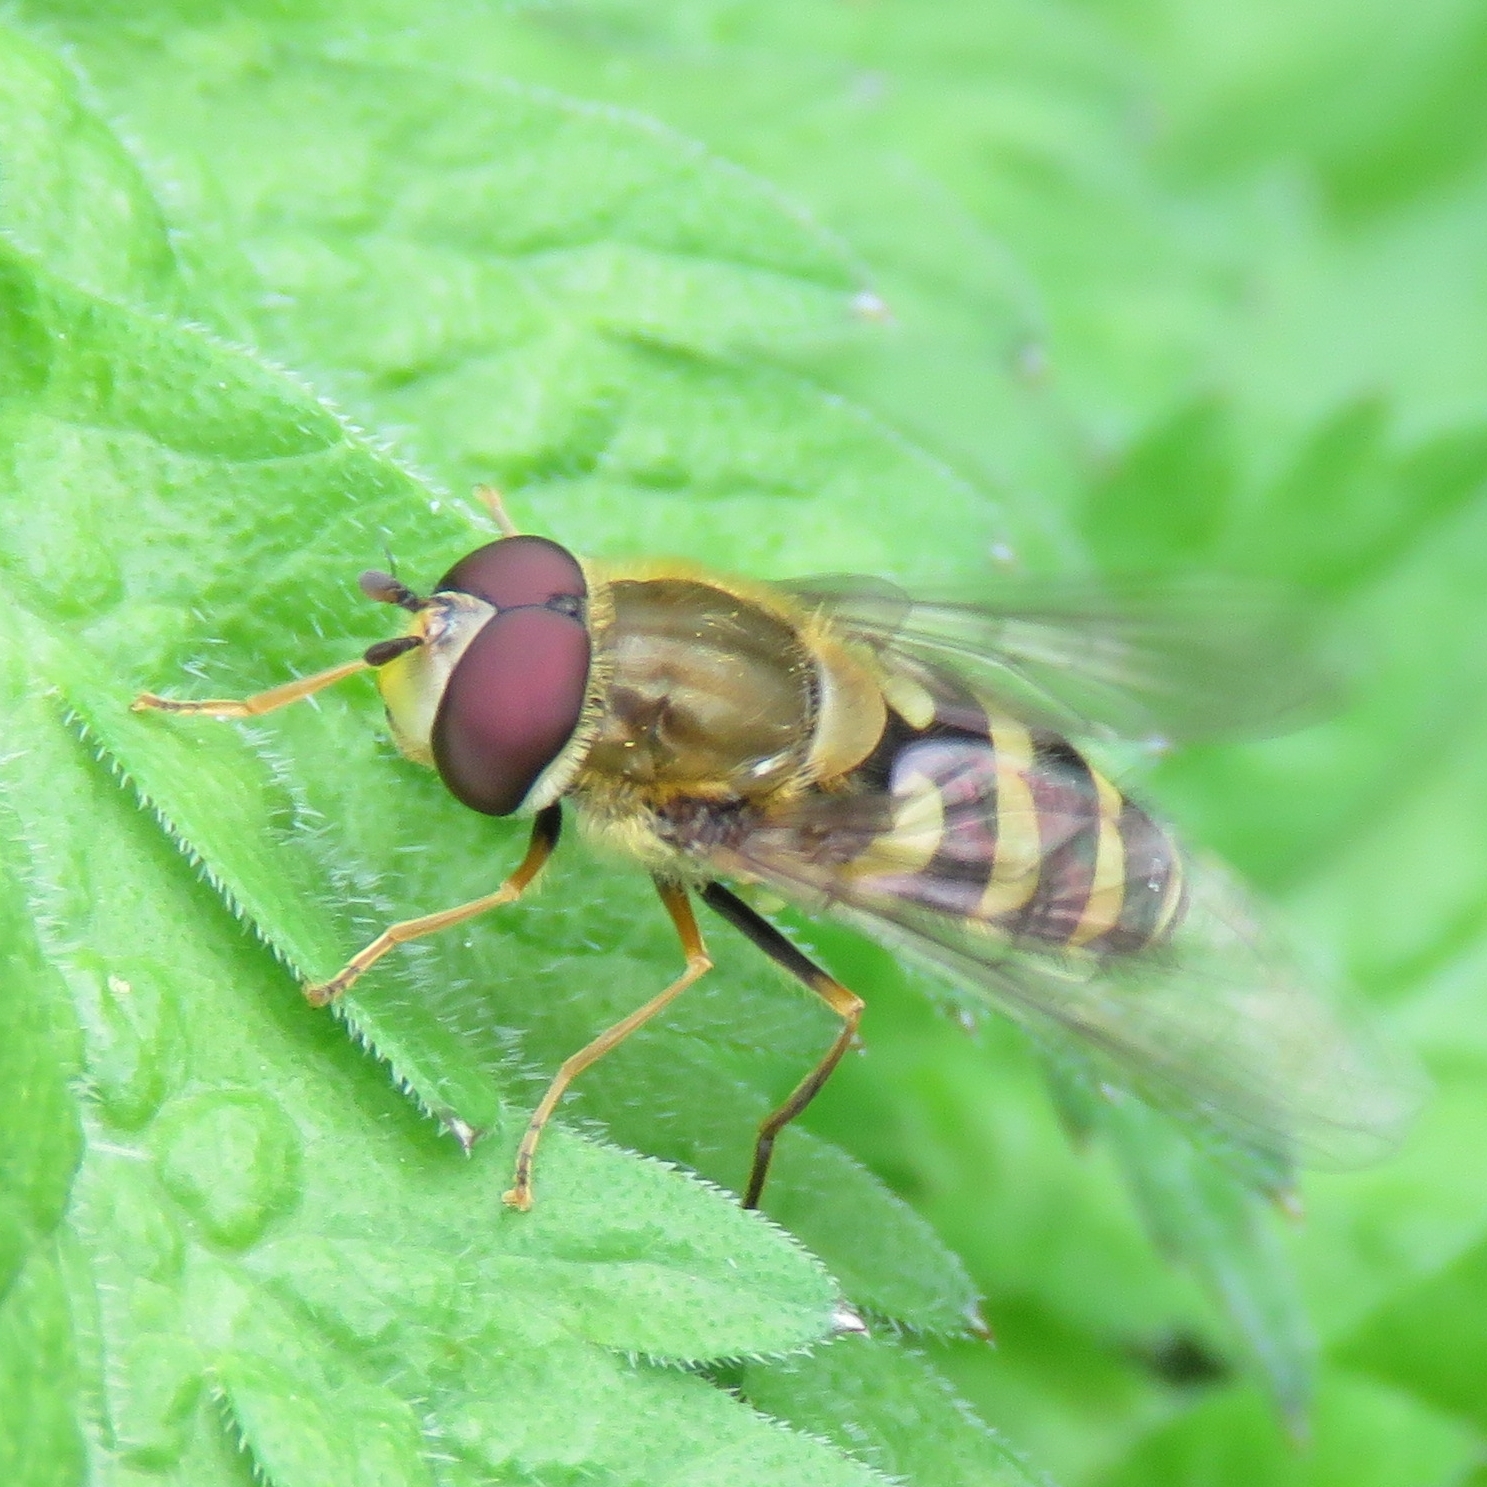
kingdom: Animalia
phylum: Arthropoda
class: Insecta
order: Diptera
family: Syrphidae
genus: Syrphus
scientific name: Syrphus
